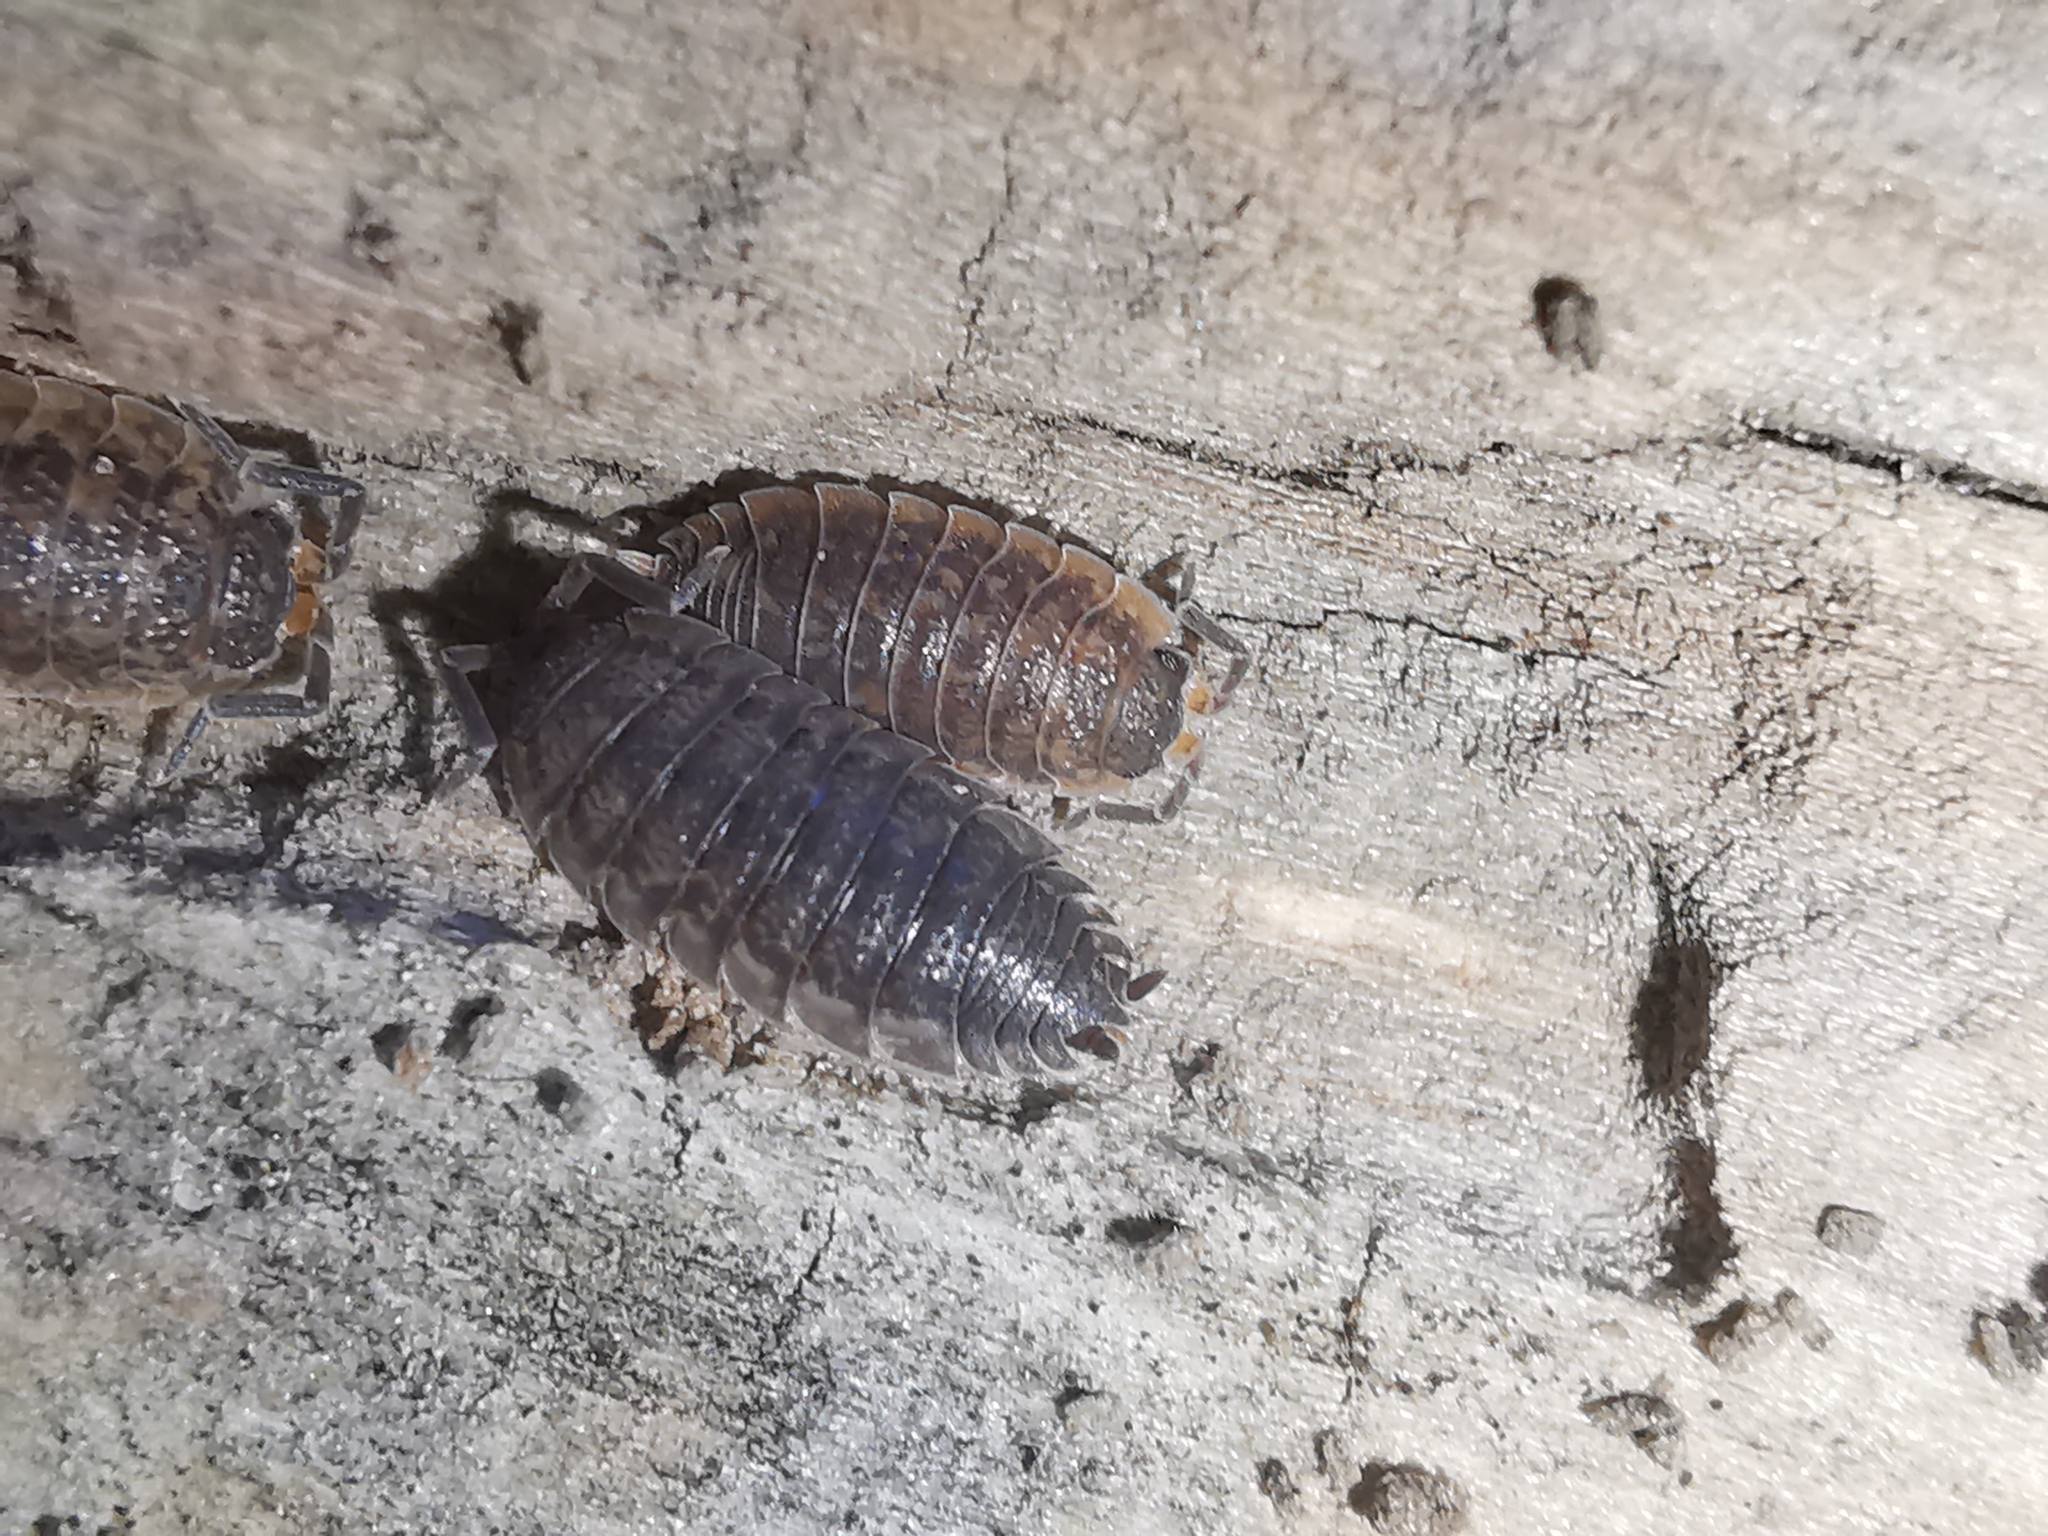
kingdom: Animalia
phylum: Arthropoda
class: Malacostraca
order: Isopoda
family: Porcellionidae
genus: Porcellio
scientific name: Porcellio scaber
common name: Common rough woodlouse
